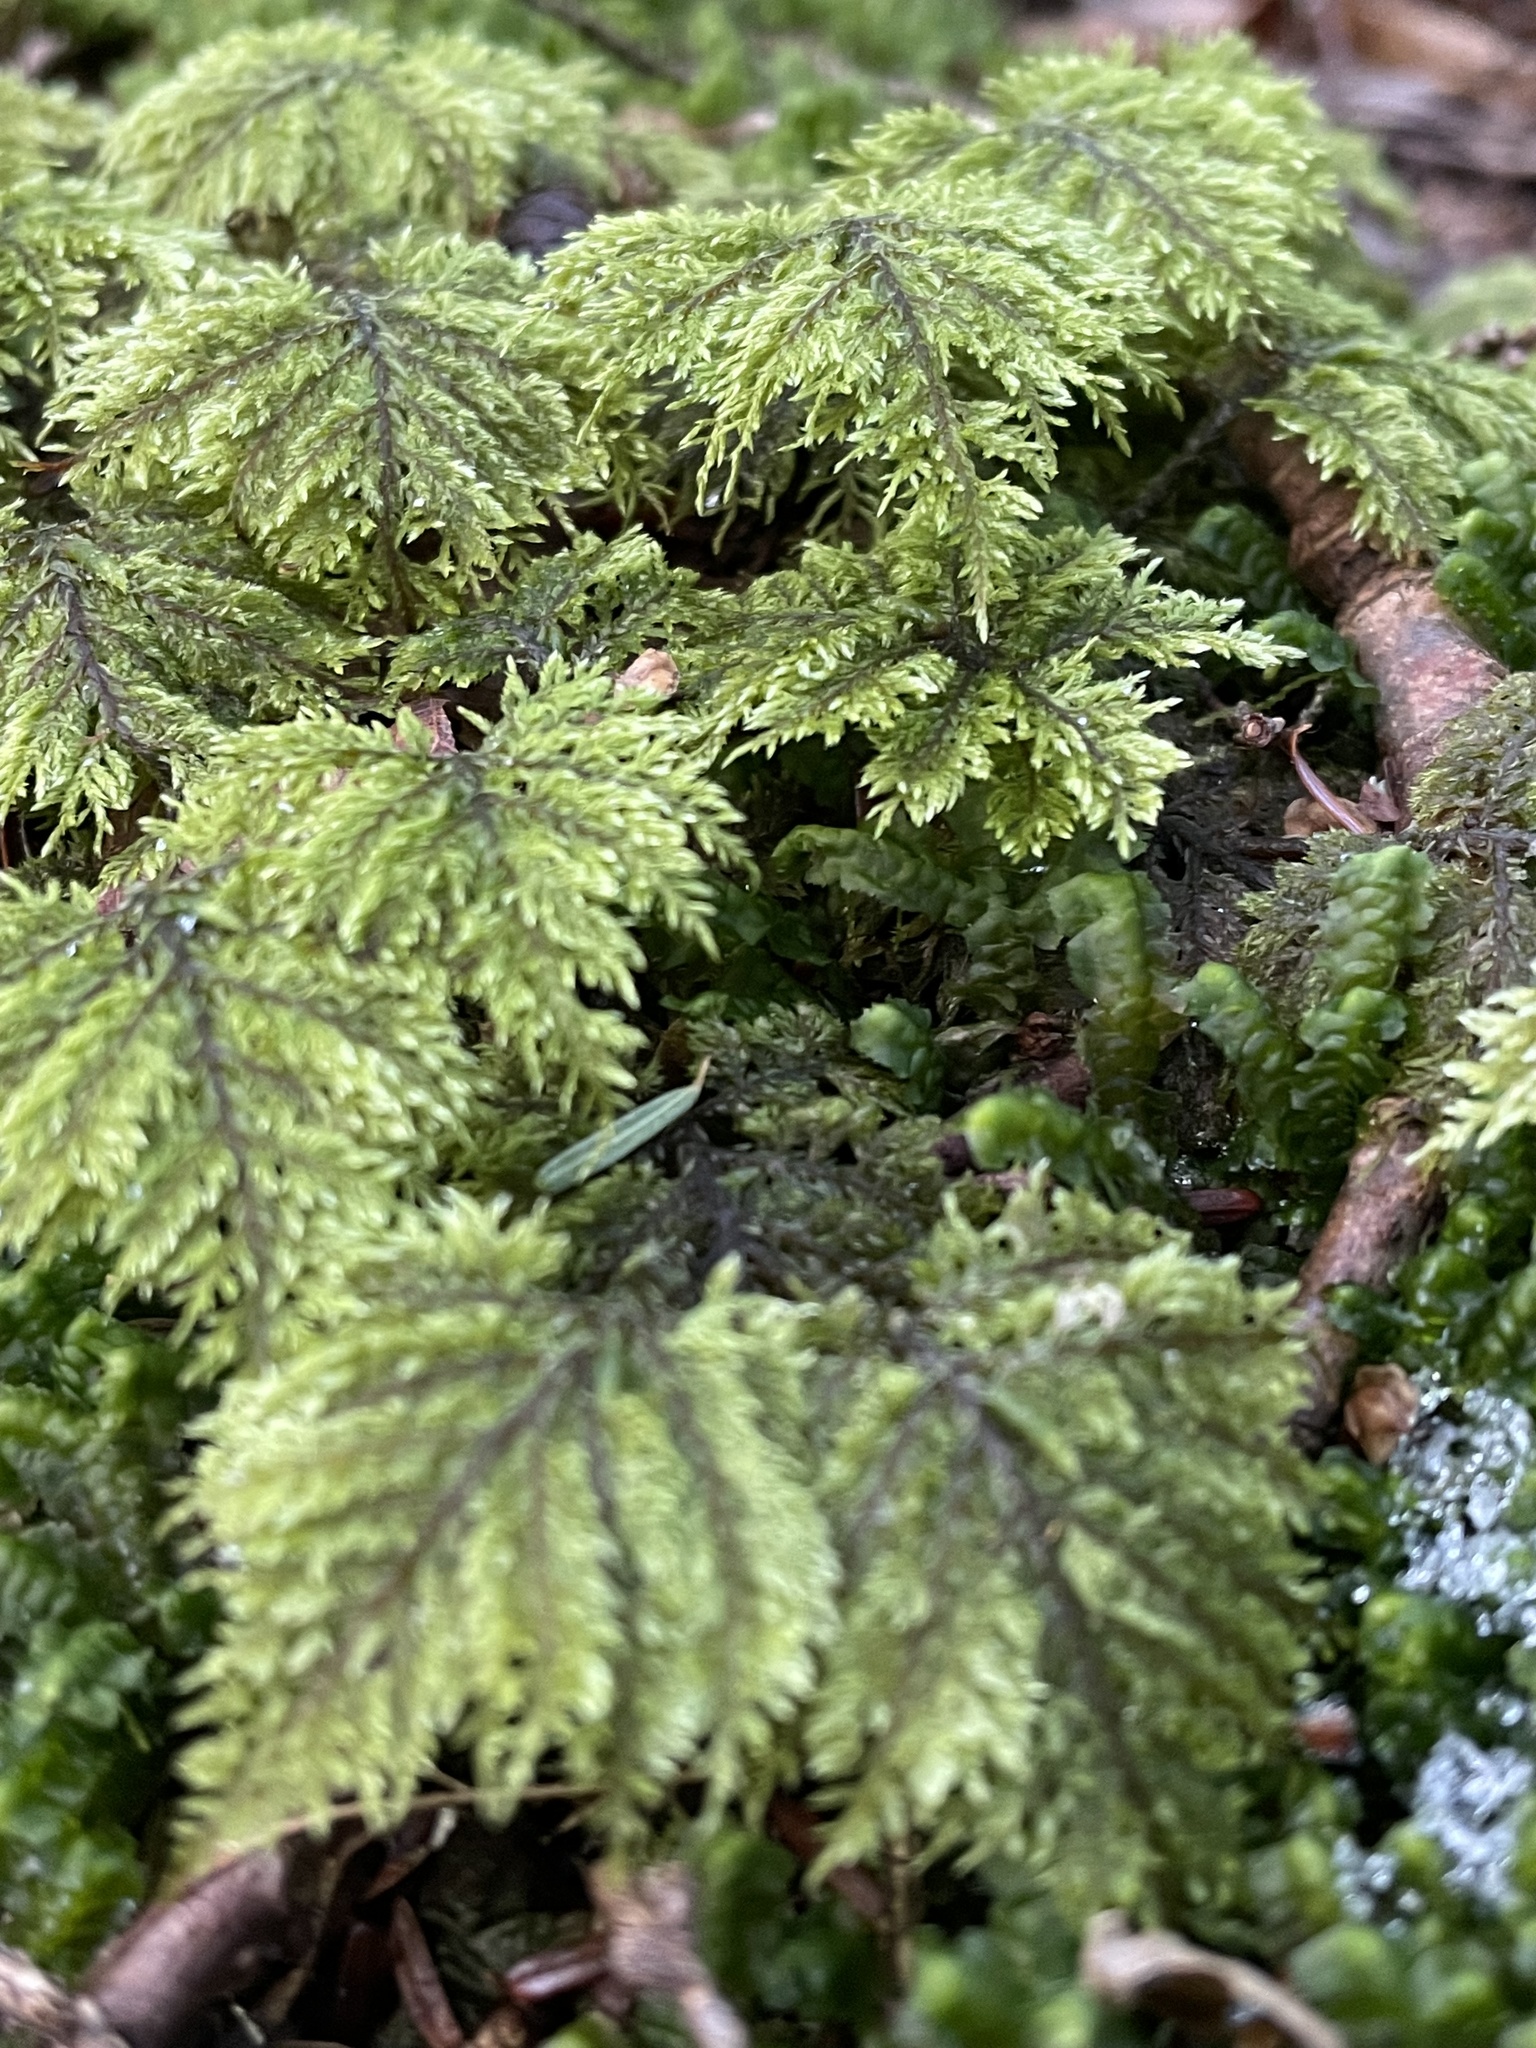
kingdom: Plantae
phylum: Bryophyta
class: Bryopsida
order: Hypnales
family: Hylocomiaceae
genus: Hylocomium
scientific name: Hylocomium splendens
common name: Stairstep moss
